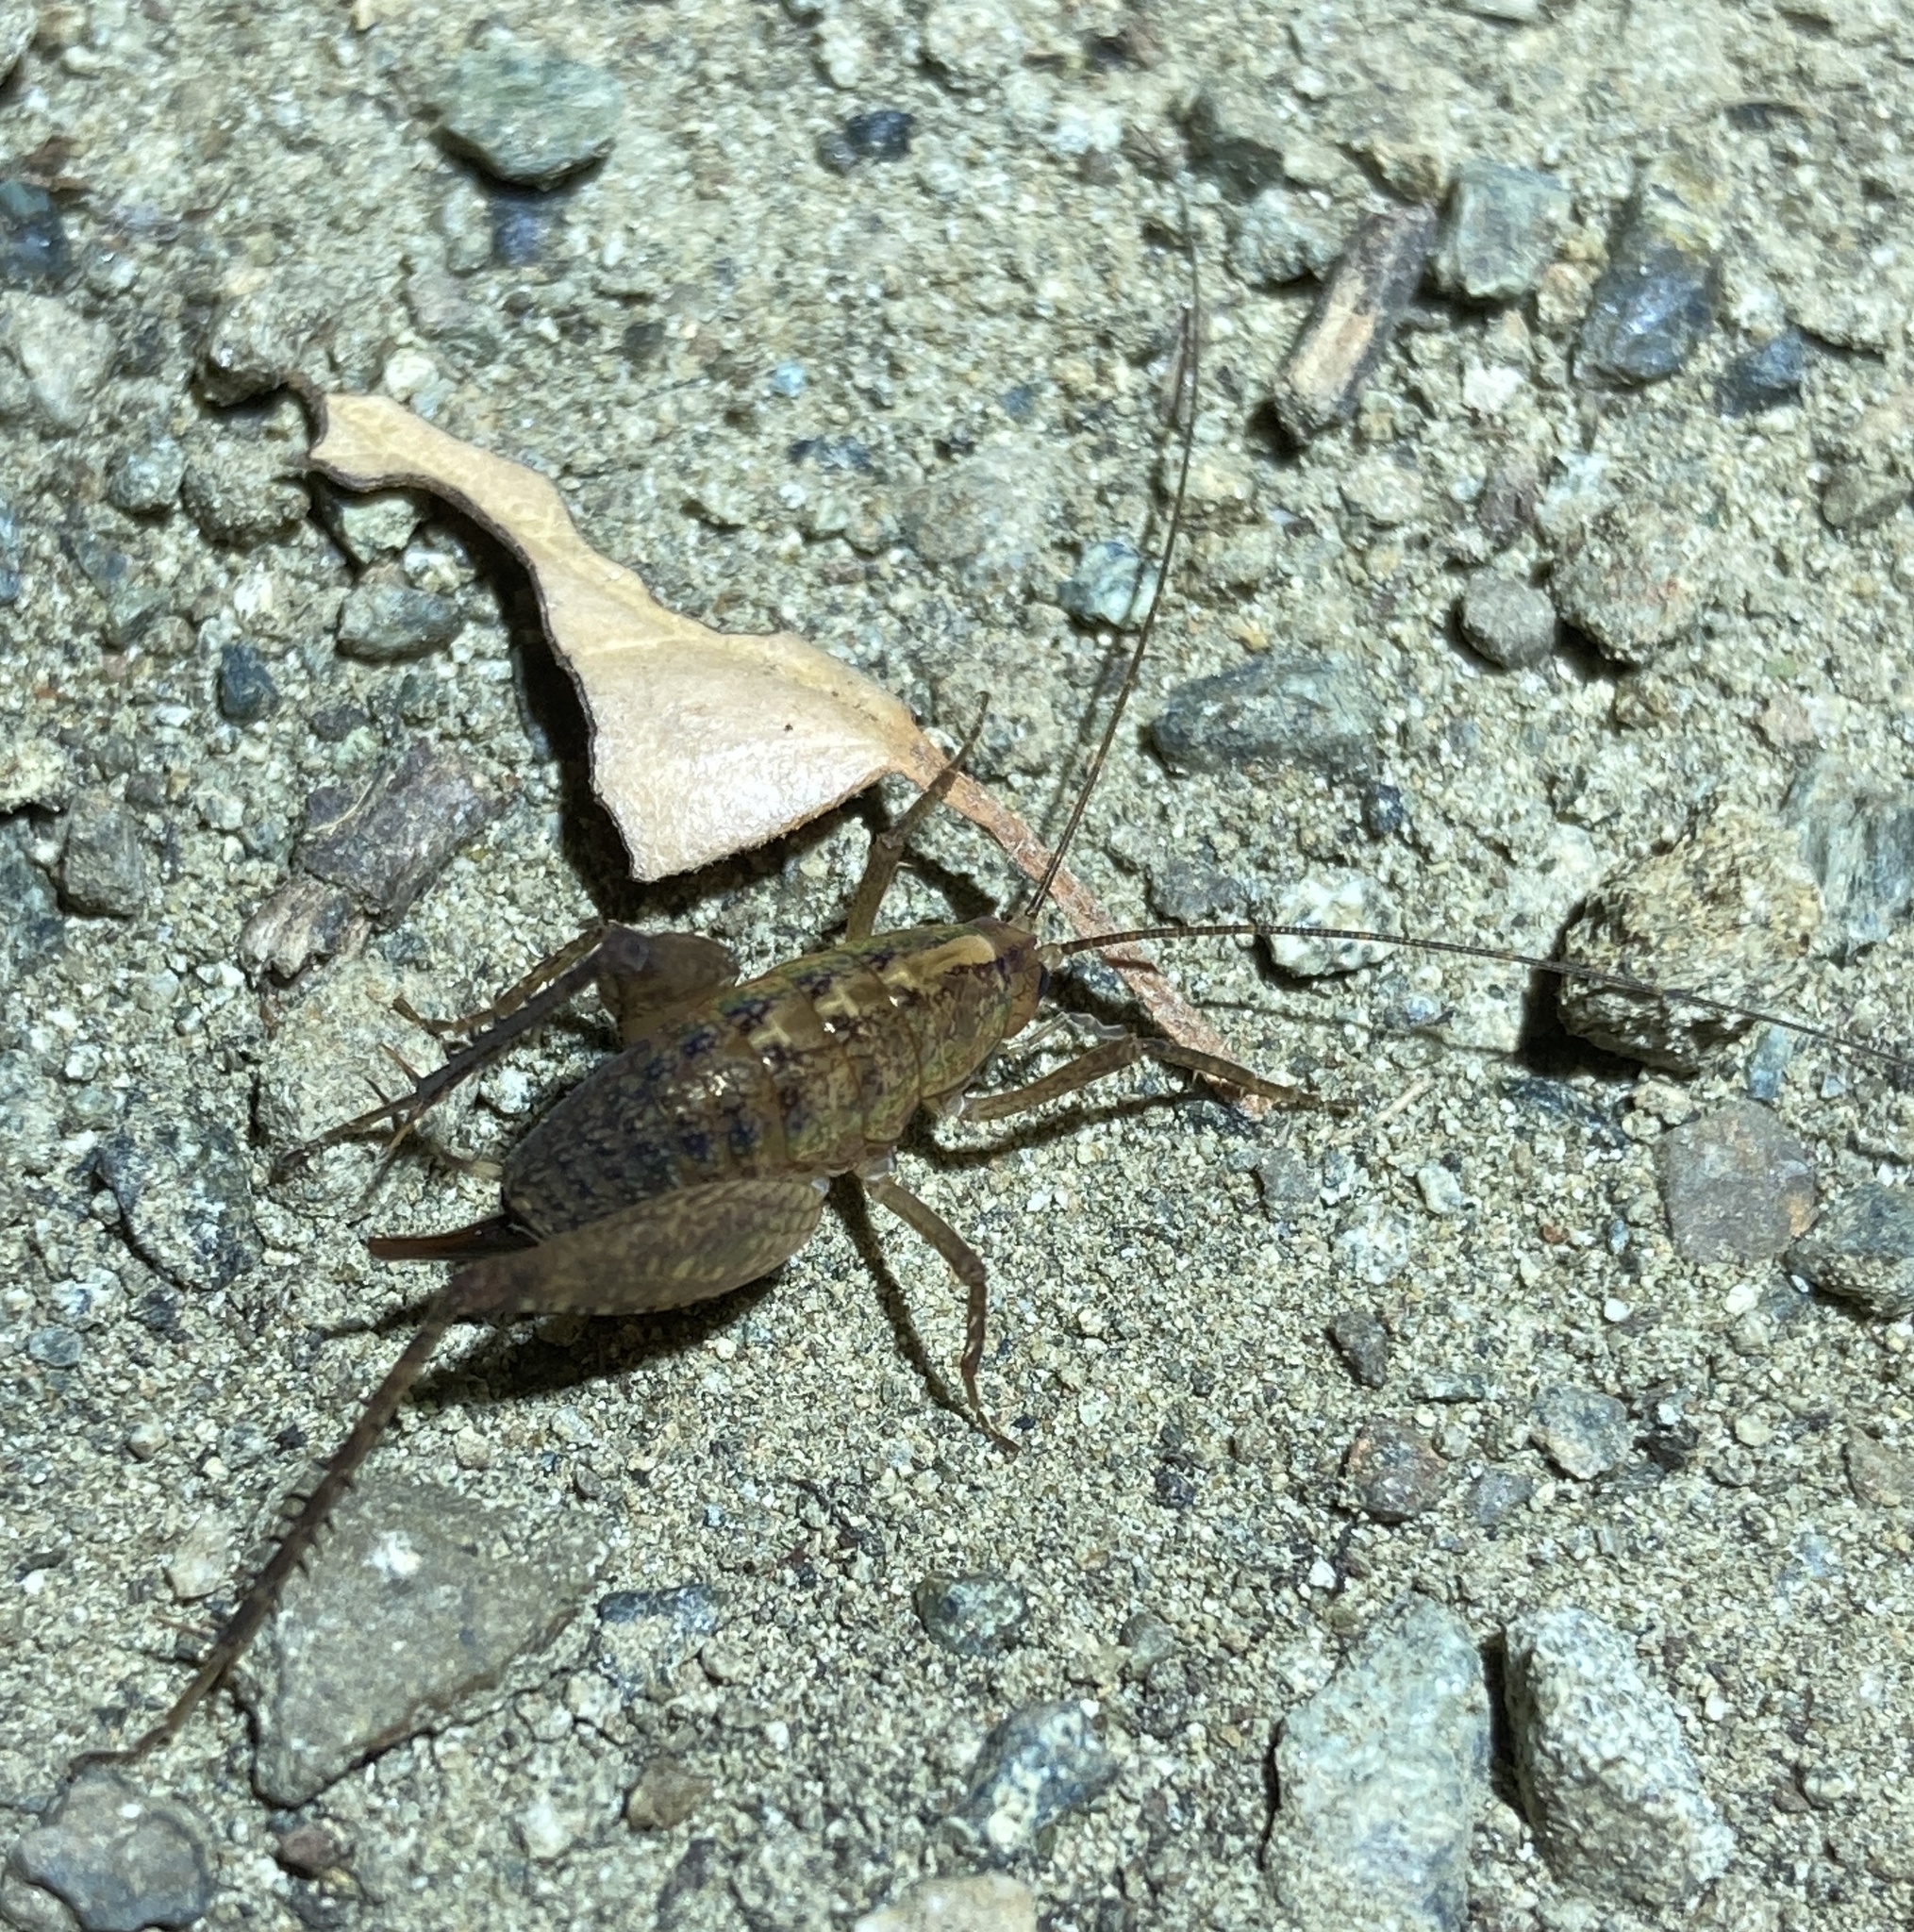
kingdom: Animalia
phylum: Arthropoda
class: Insecta
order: Orthoptera
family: Rhaphidophoridae
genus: Pristoceuthophilus
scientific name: Pristoceuthophilus
